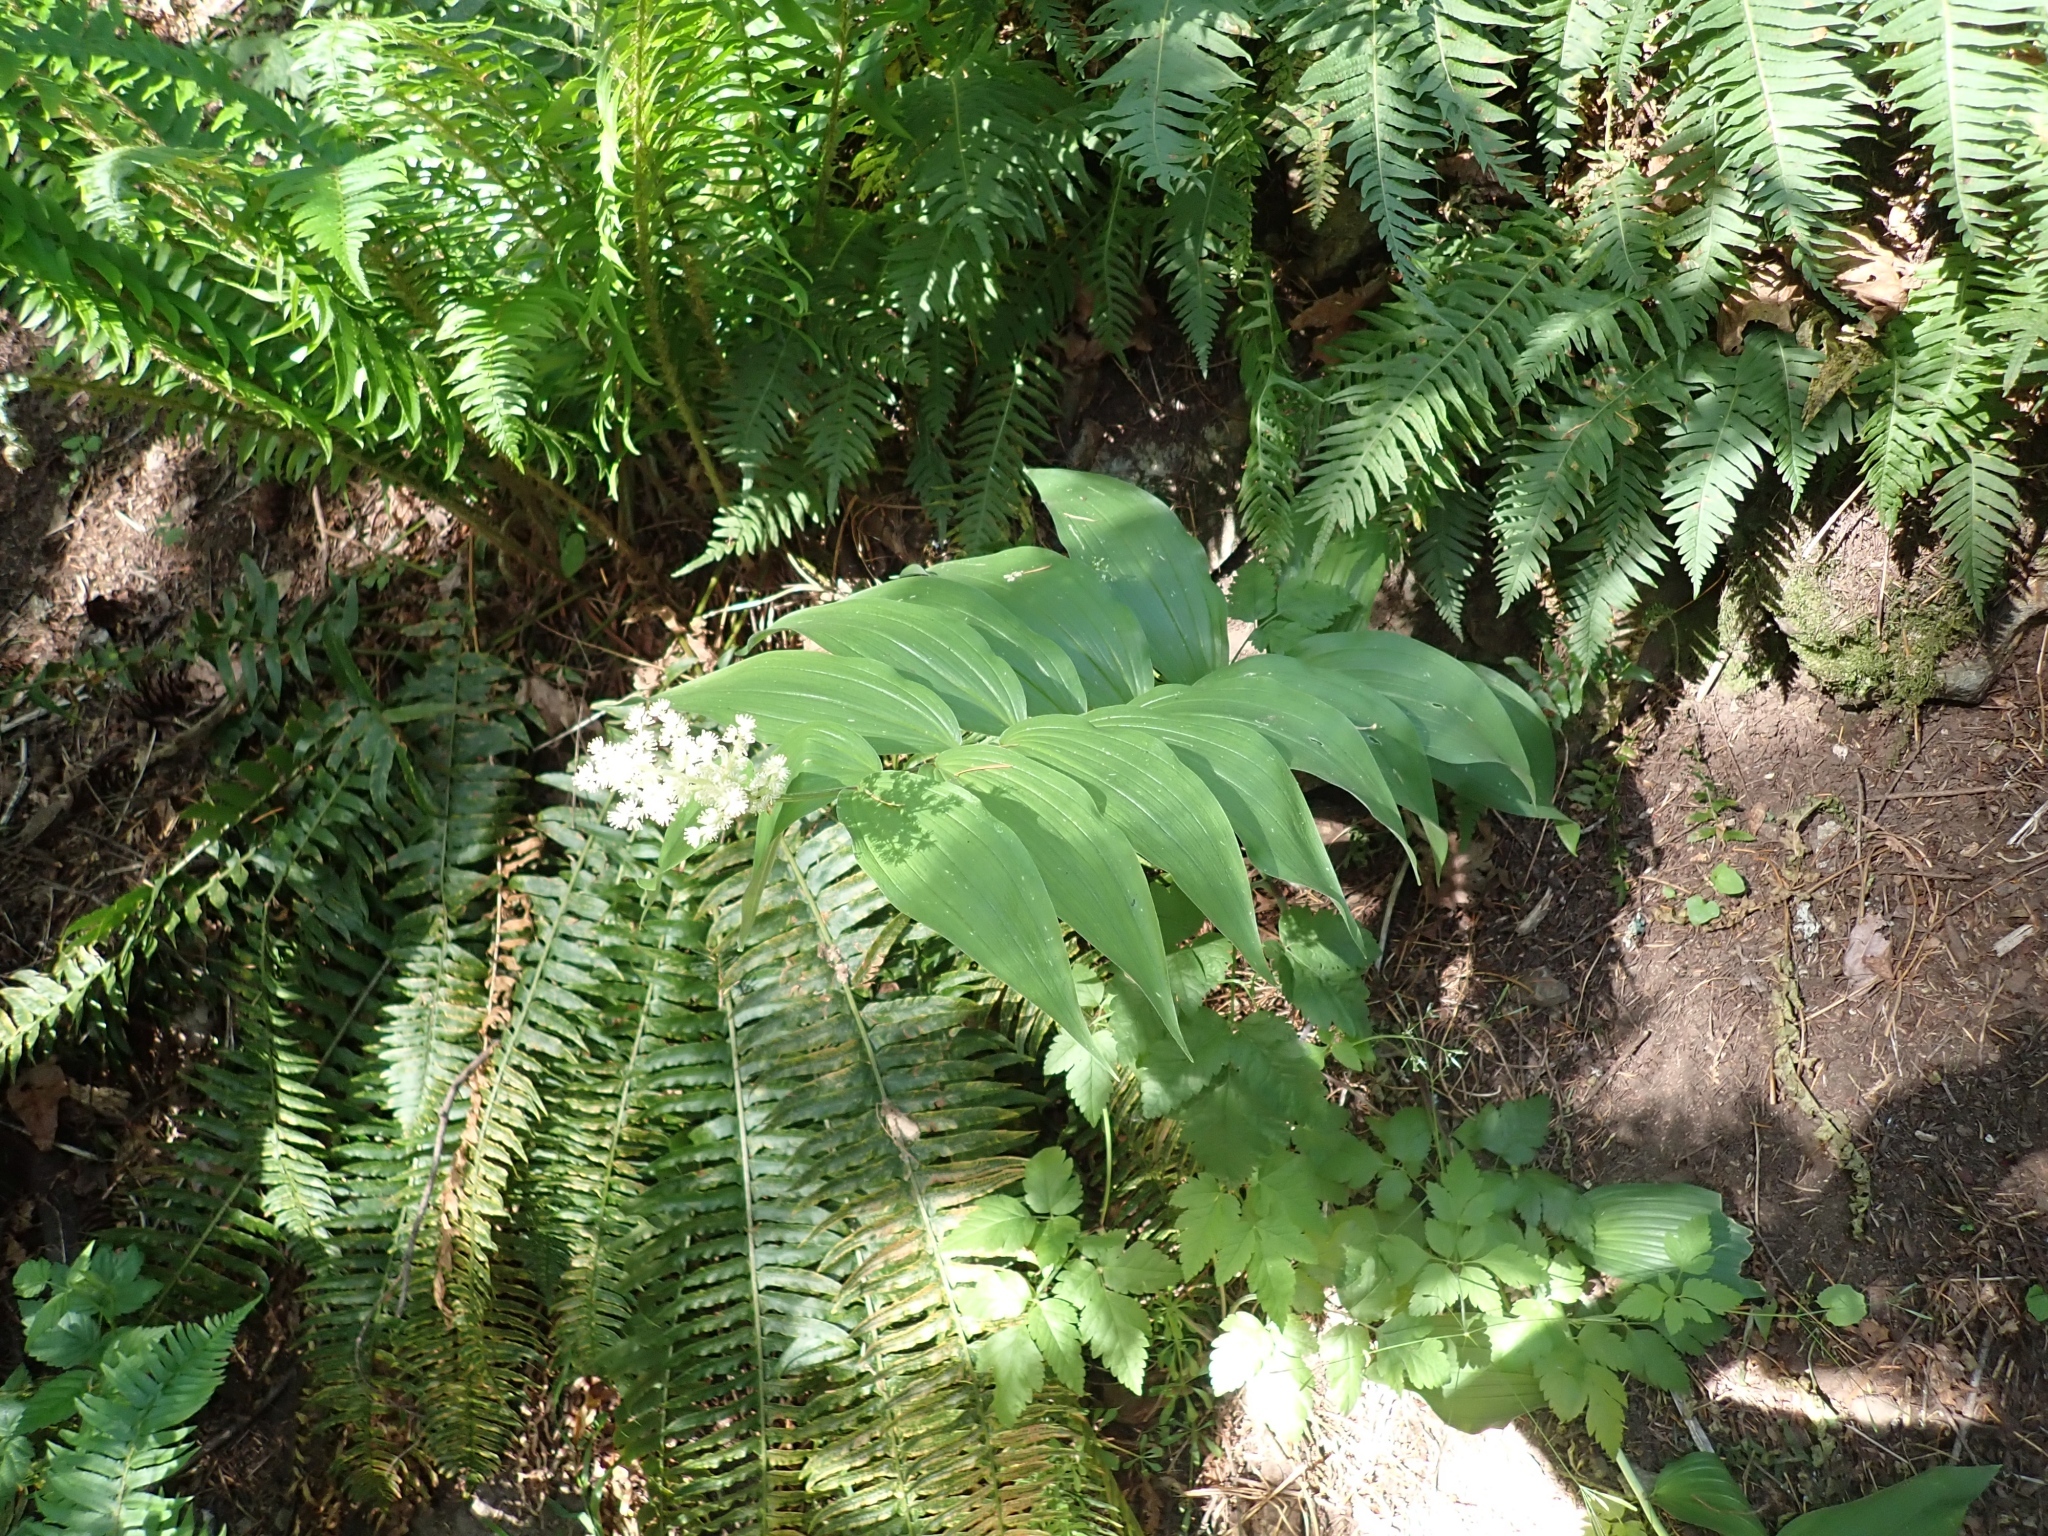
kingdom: Plantae
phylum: Tracheophyta
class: Liliopsida
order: Asparagales
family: Asparagaceae
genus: Maianthemum
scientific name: Maianthemum racemosum
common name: False spikenard
